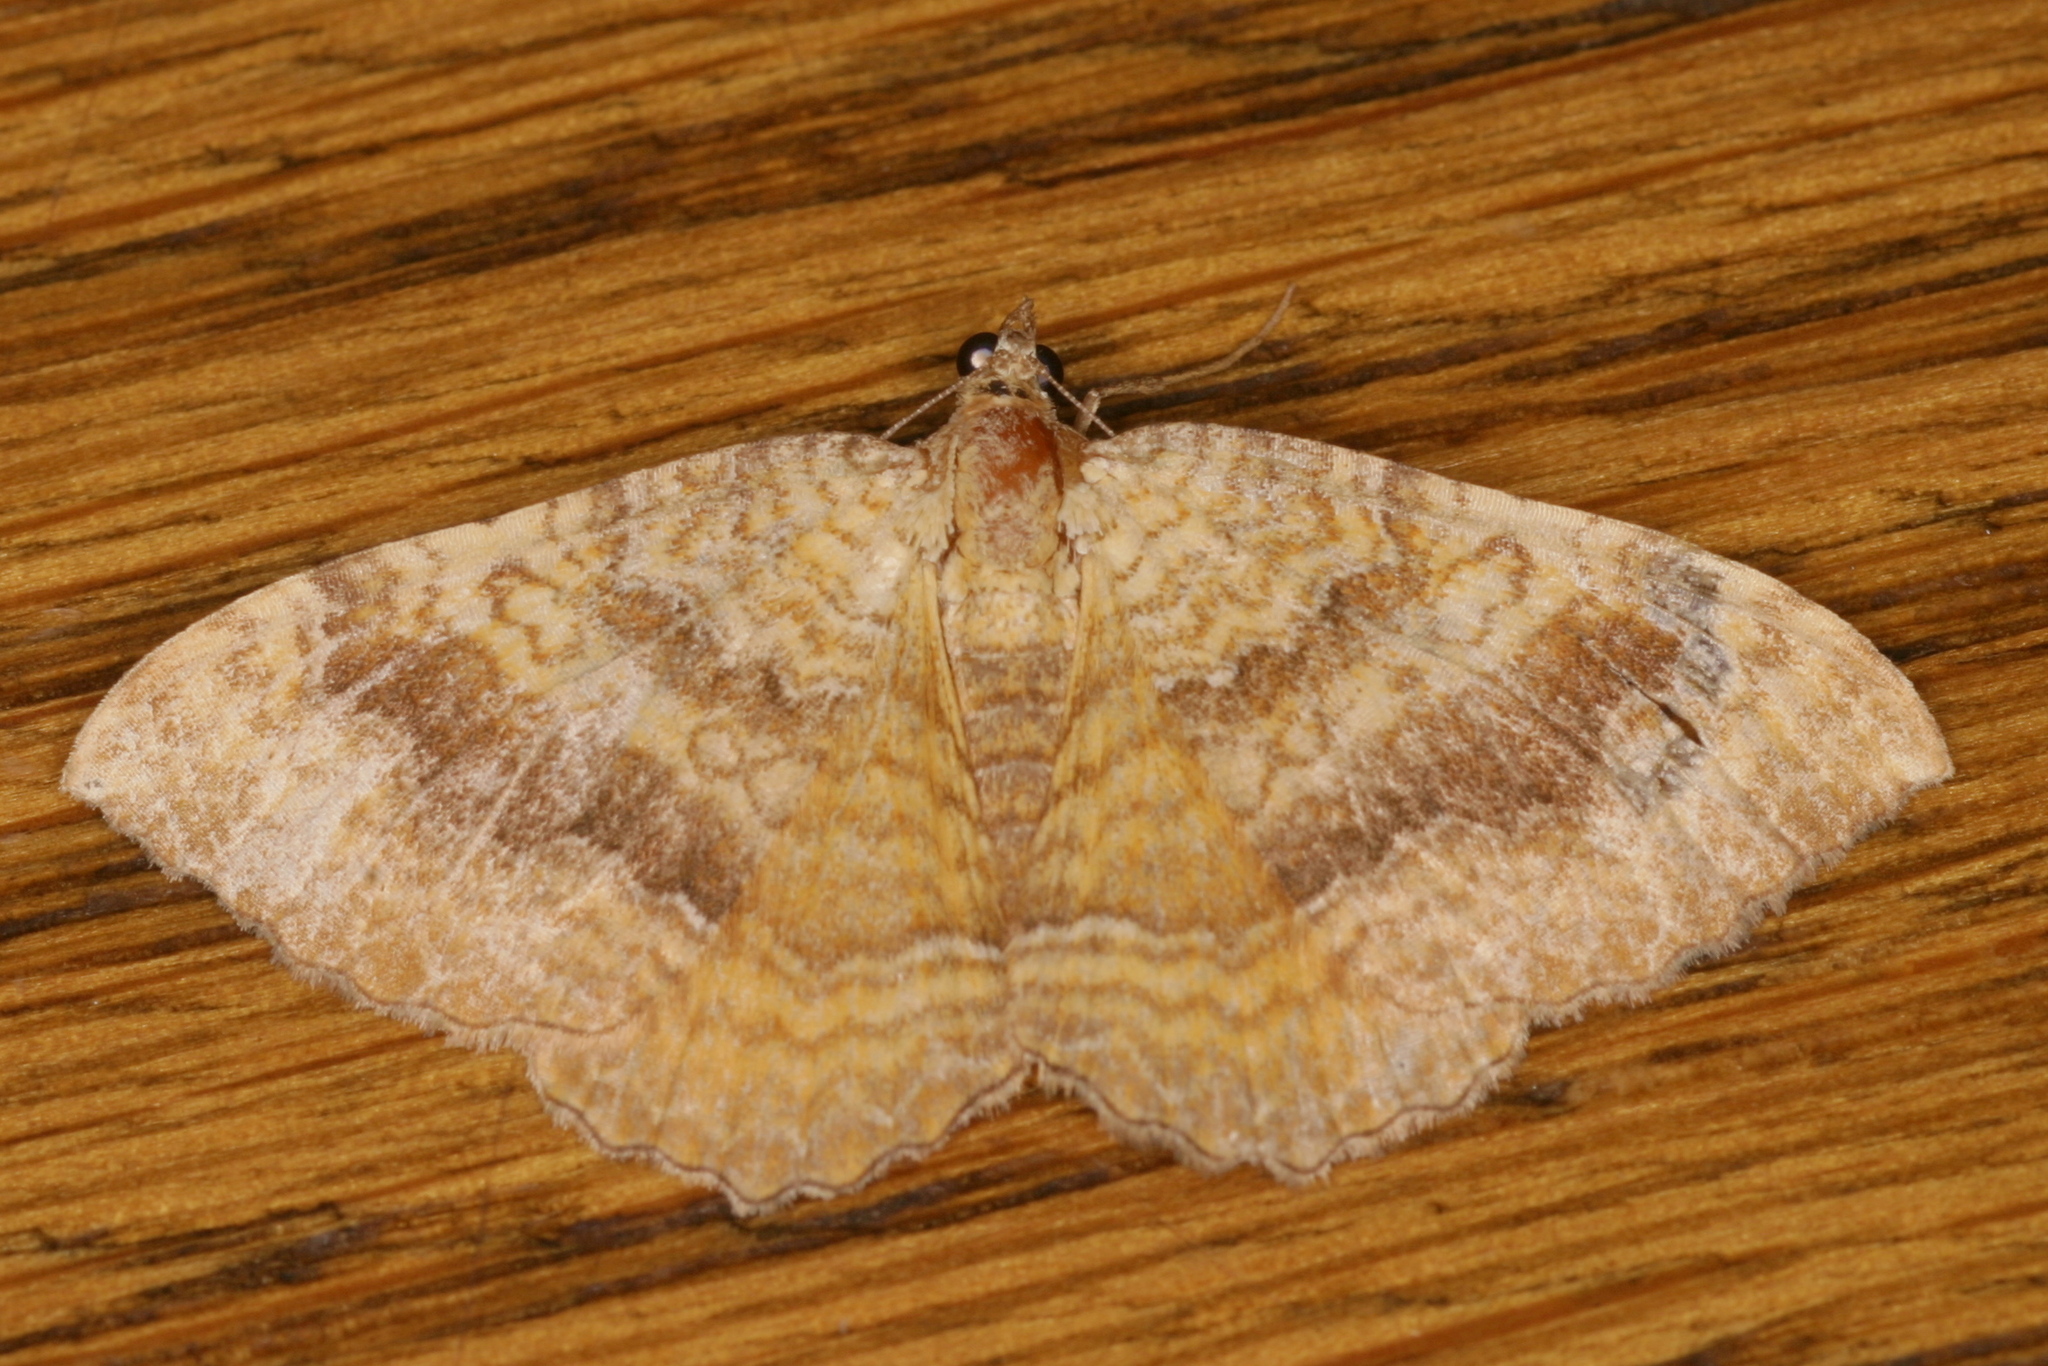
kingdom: Animalia
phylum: Arthropoda
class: Insecta
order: Lepidoptera
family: Geometridae
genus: Camptogramma
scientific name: Camptogramma bilineata
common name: Yellow shell
